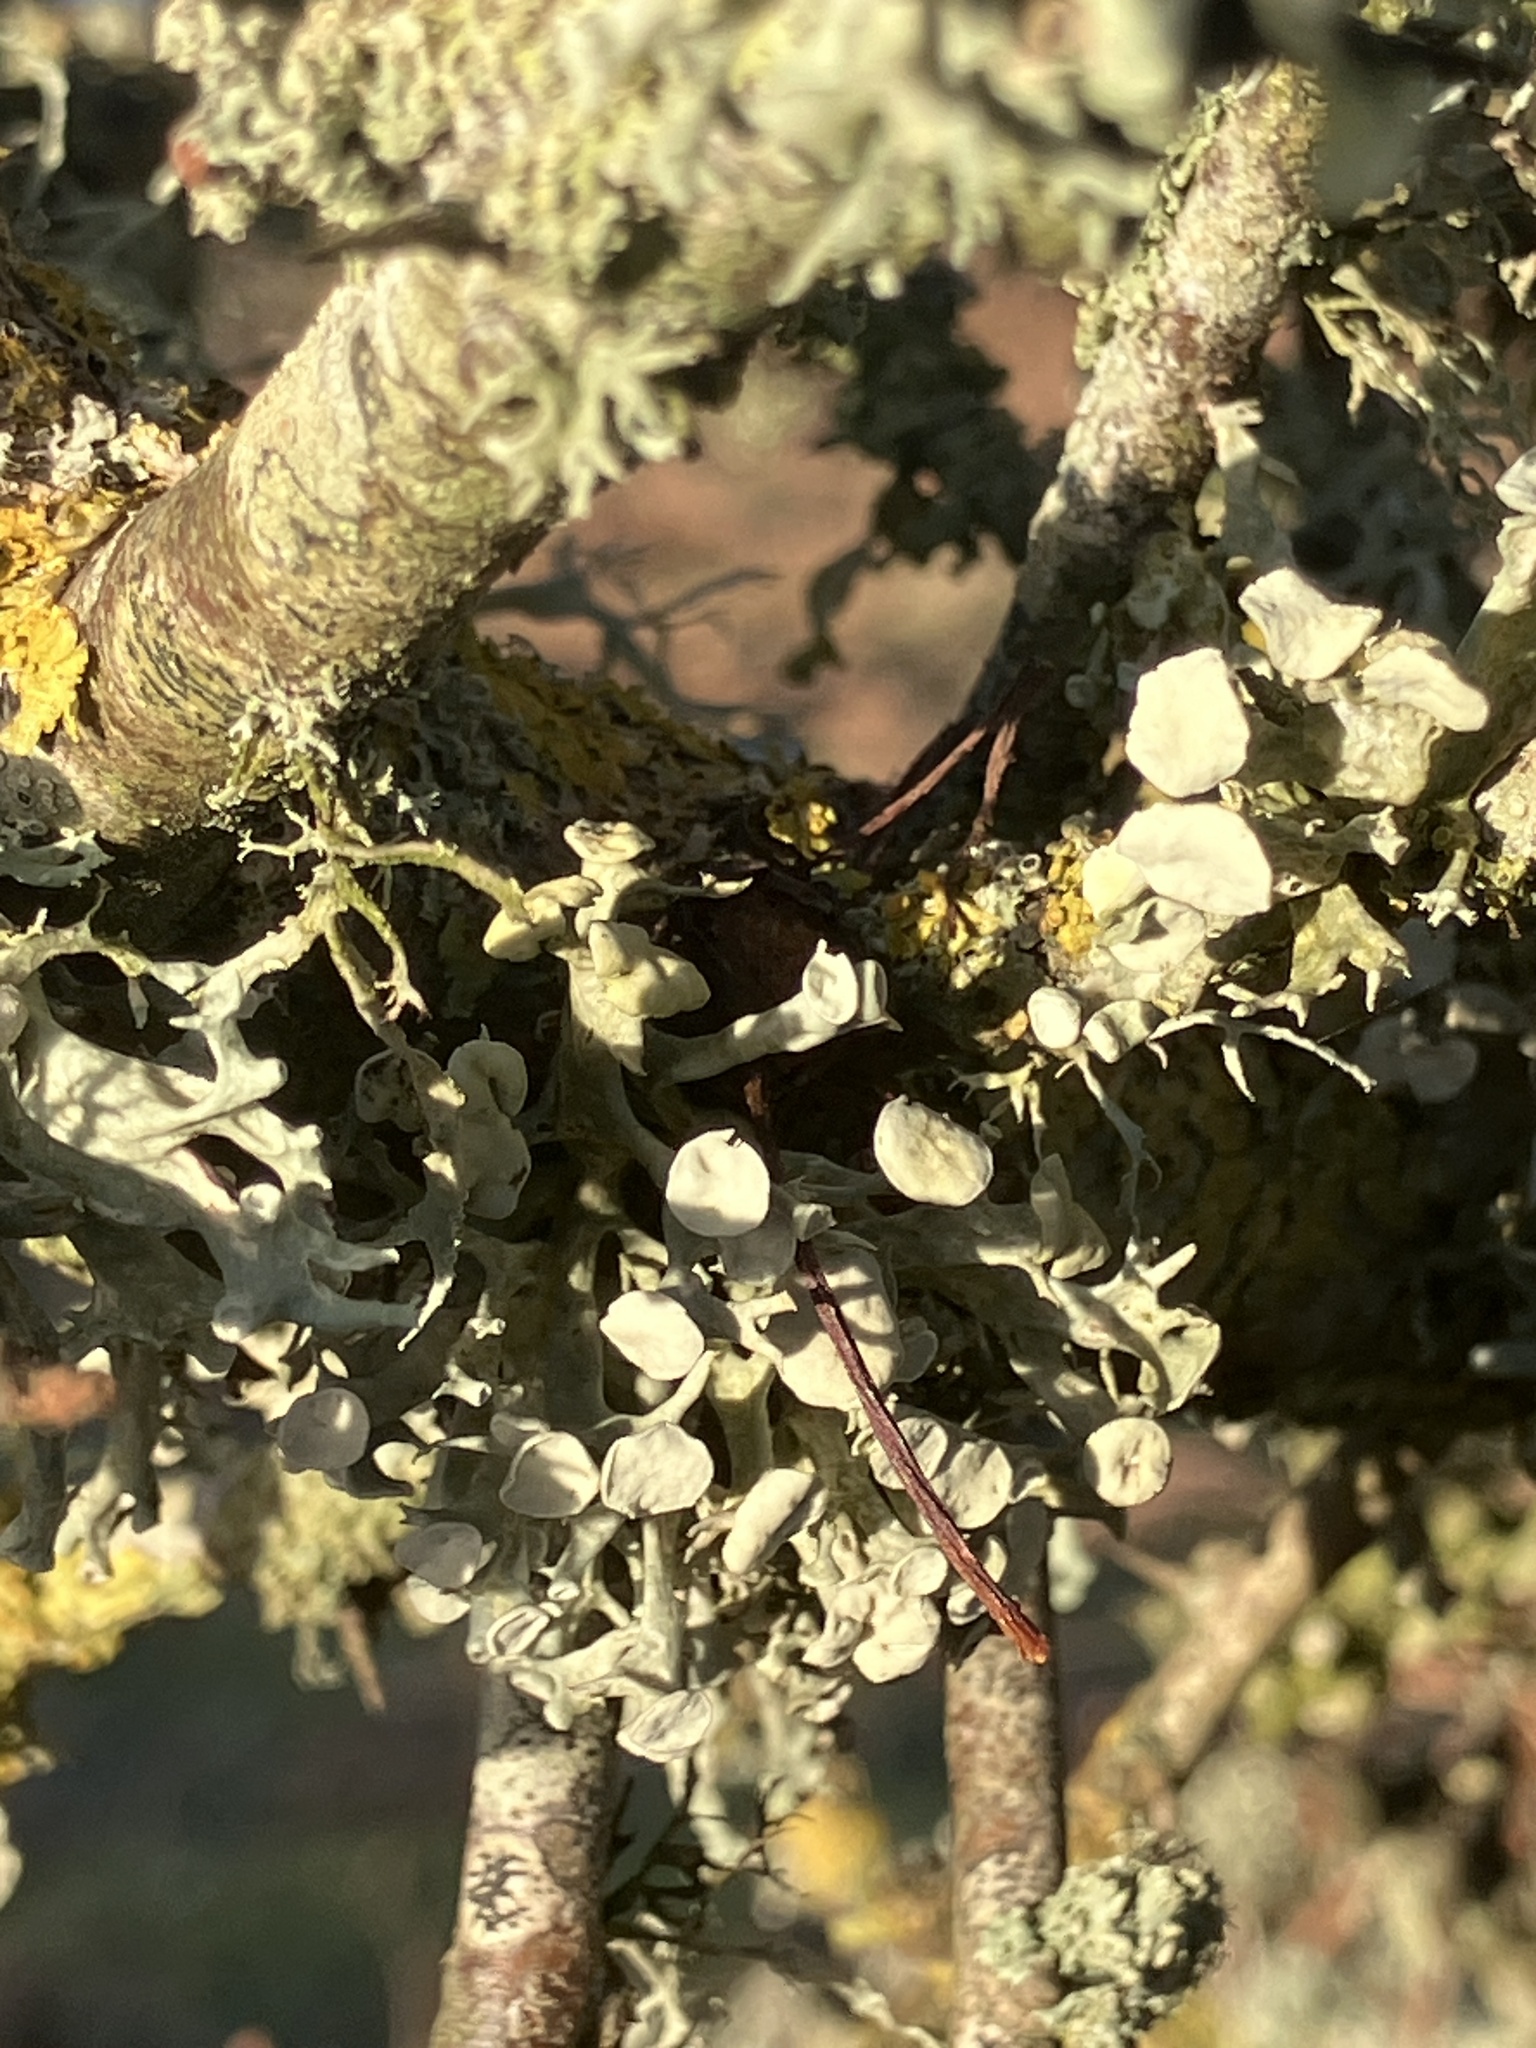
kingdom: Fungi
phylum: Ascomycota
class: Lecanoromycetes
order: Lecanorales
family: Ramalinaceae
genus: Ramalina
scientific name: Ramalina fastigiata
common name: Dotted ribbon lichen
